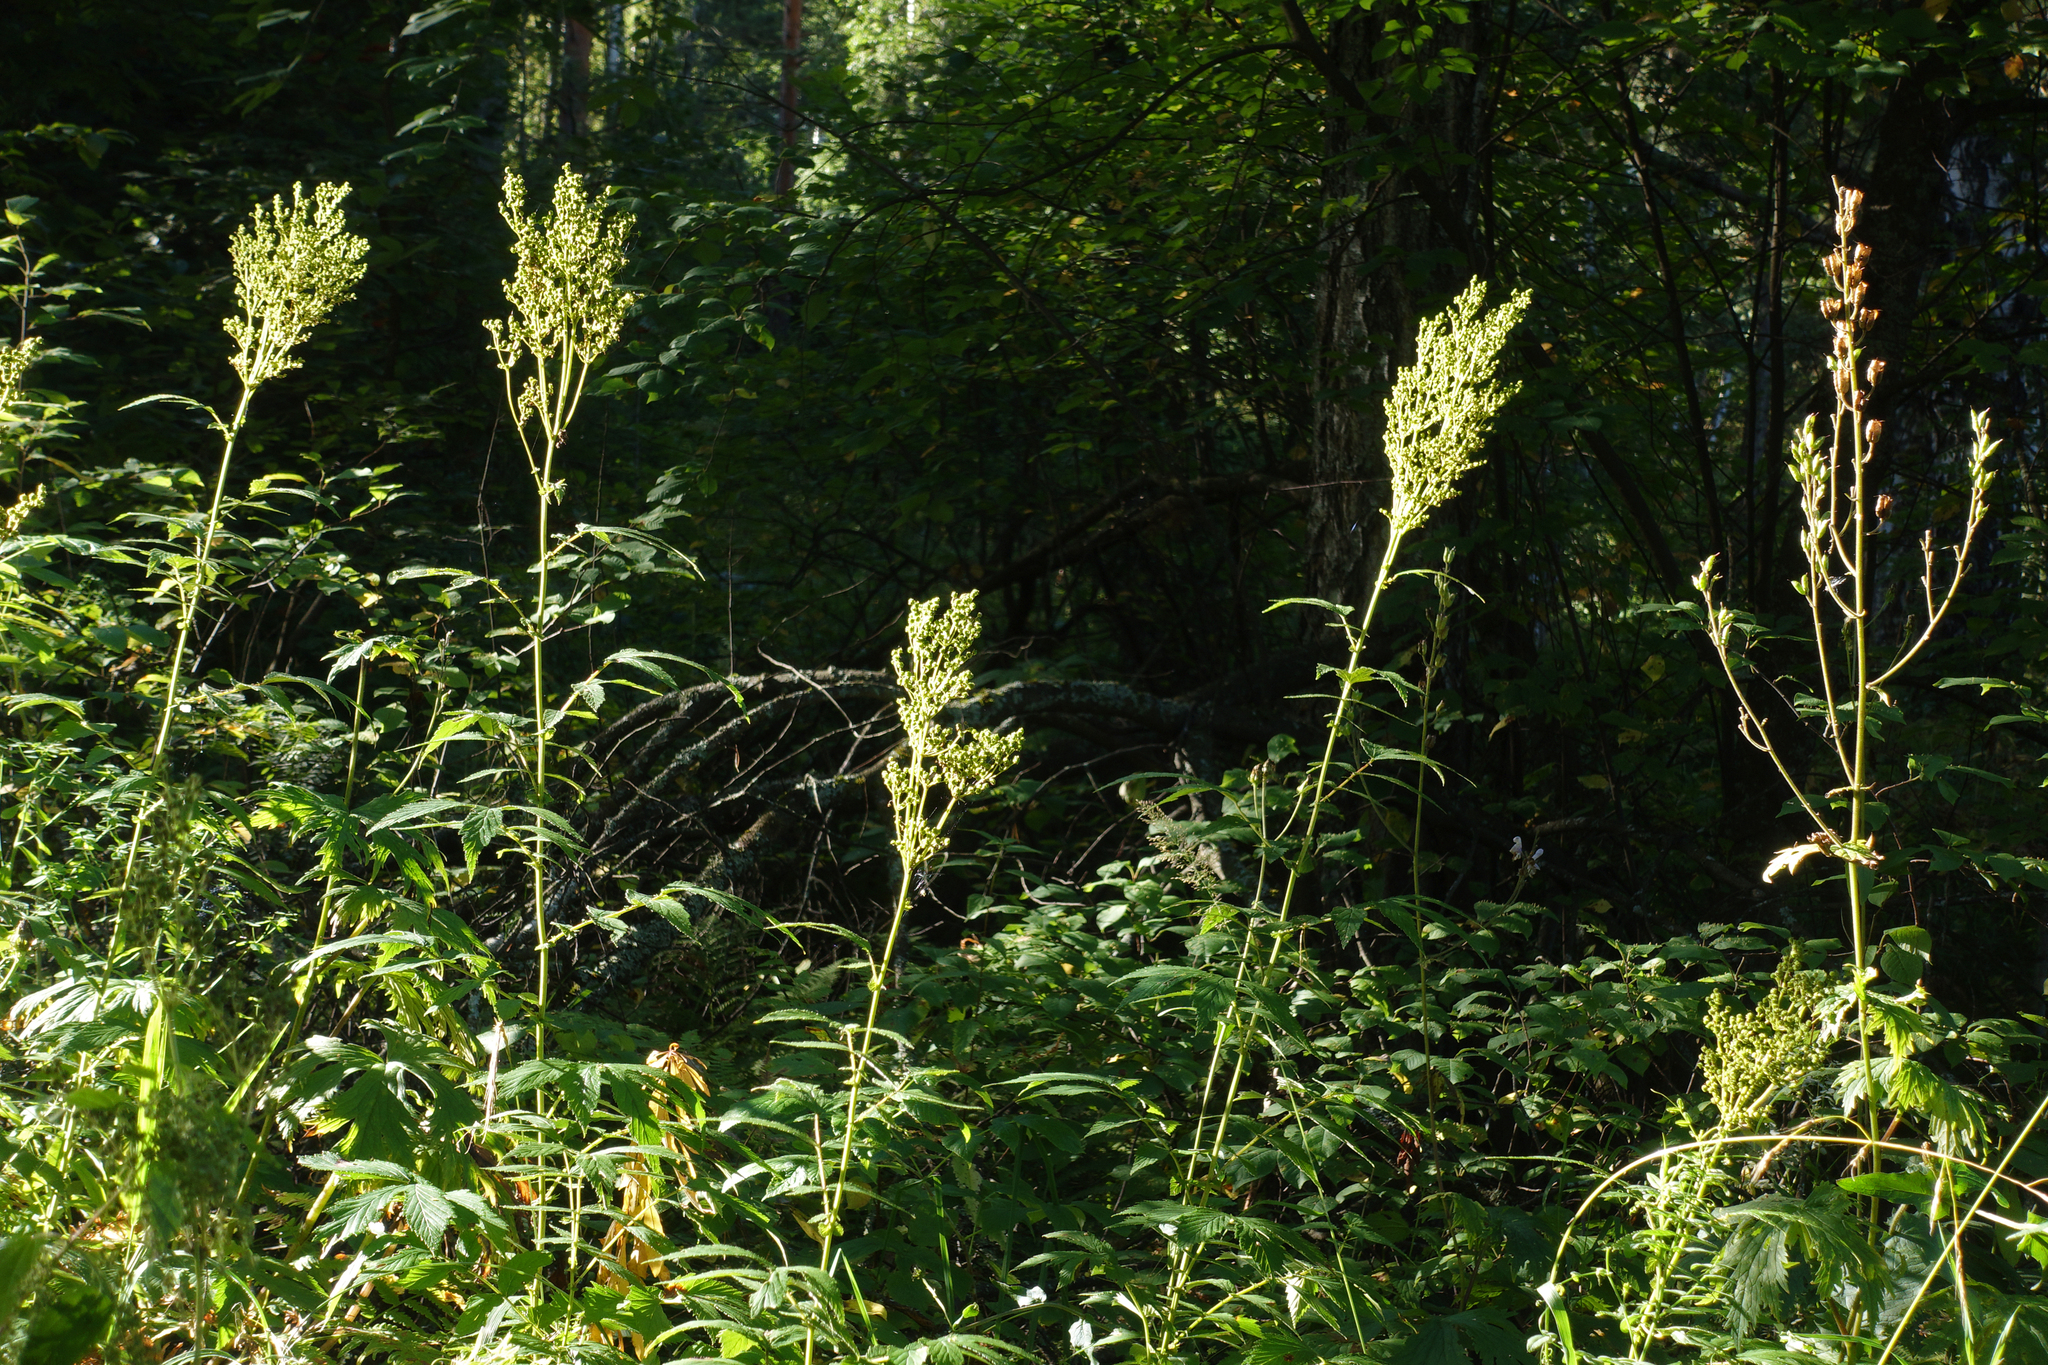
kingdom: Plantae
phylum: Tracheophyta
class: Magnoliopsida
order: Rosales
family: Rosaceae
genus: Filipendula
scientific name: Filipendula ulmaria
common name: Meadowsweet
